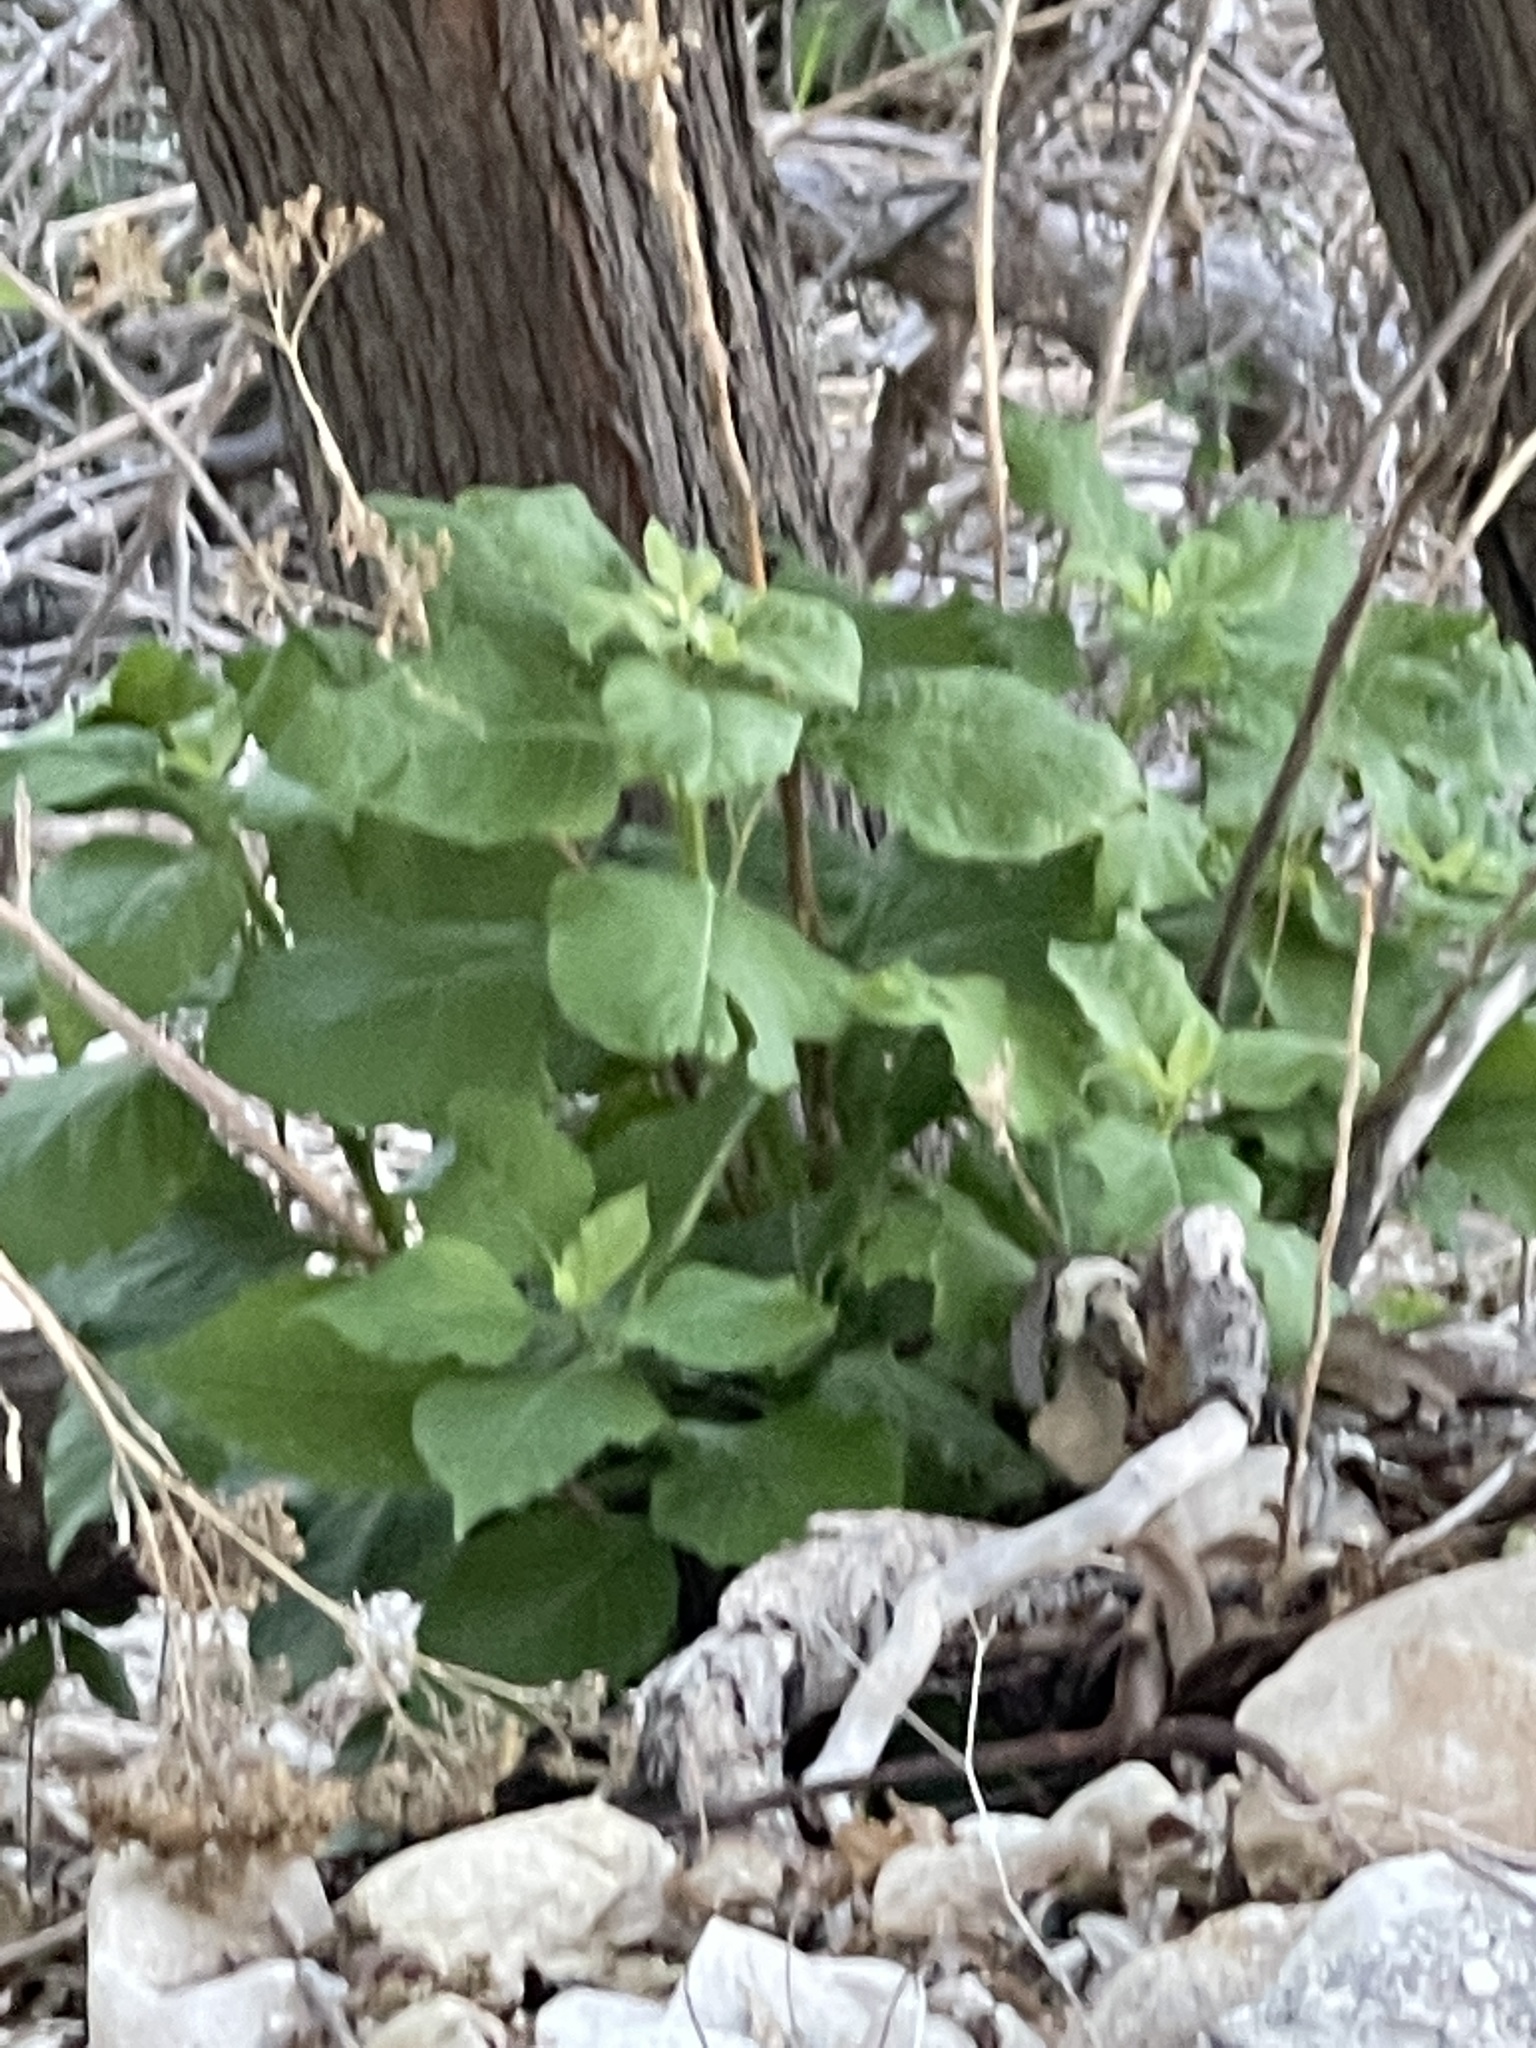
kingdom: Plantae
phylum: Tracheophyta
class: Magnoliopsida
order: Asterales
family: Asteraceae
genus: Verbesina
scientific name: Verbesina virginica
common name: Frostweed
